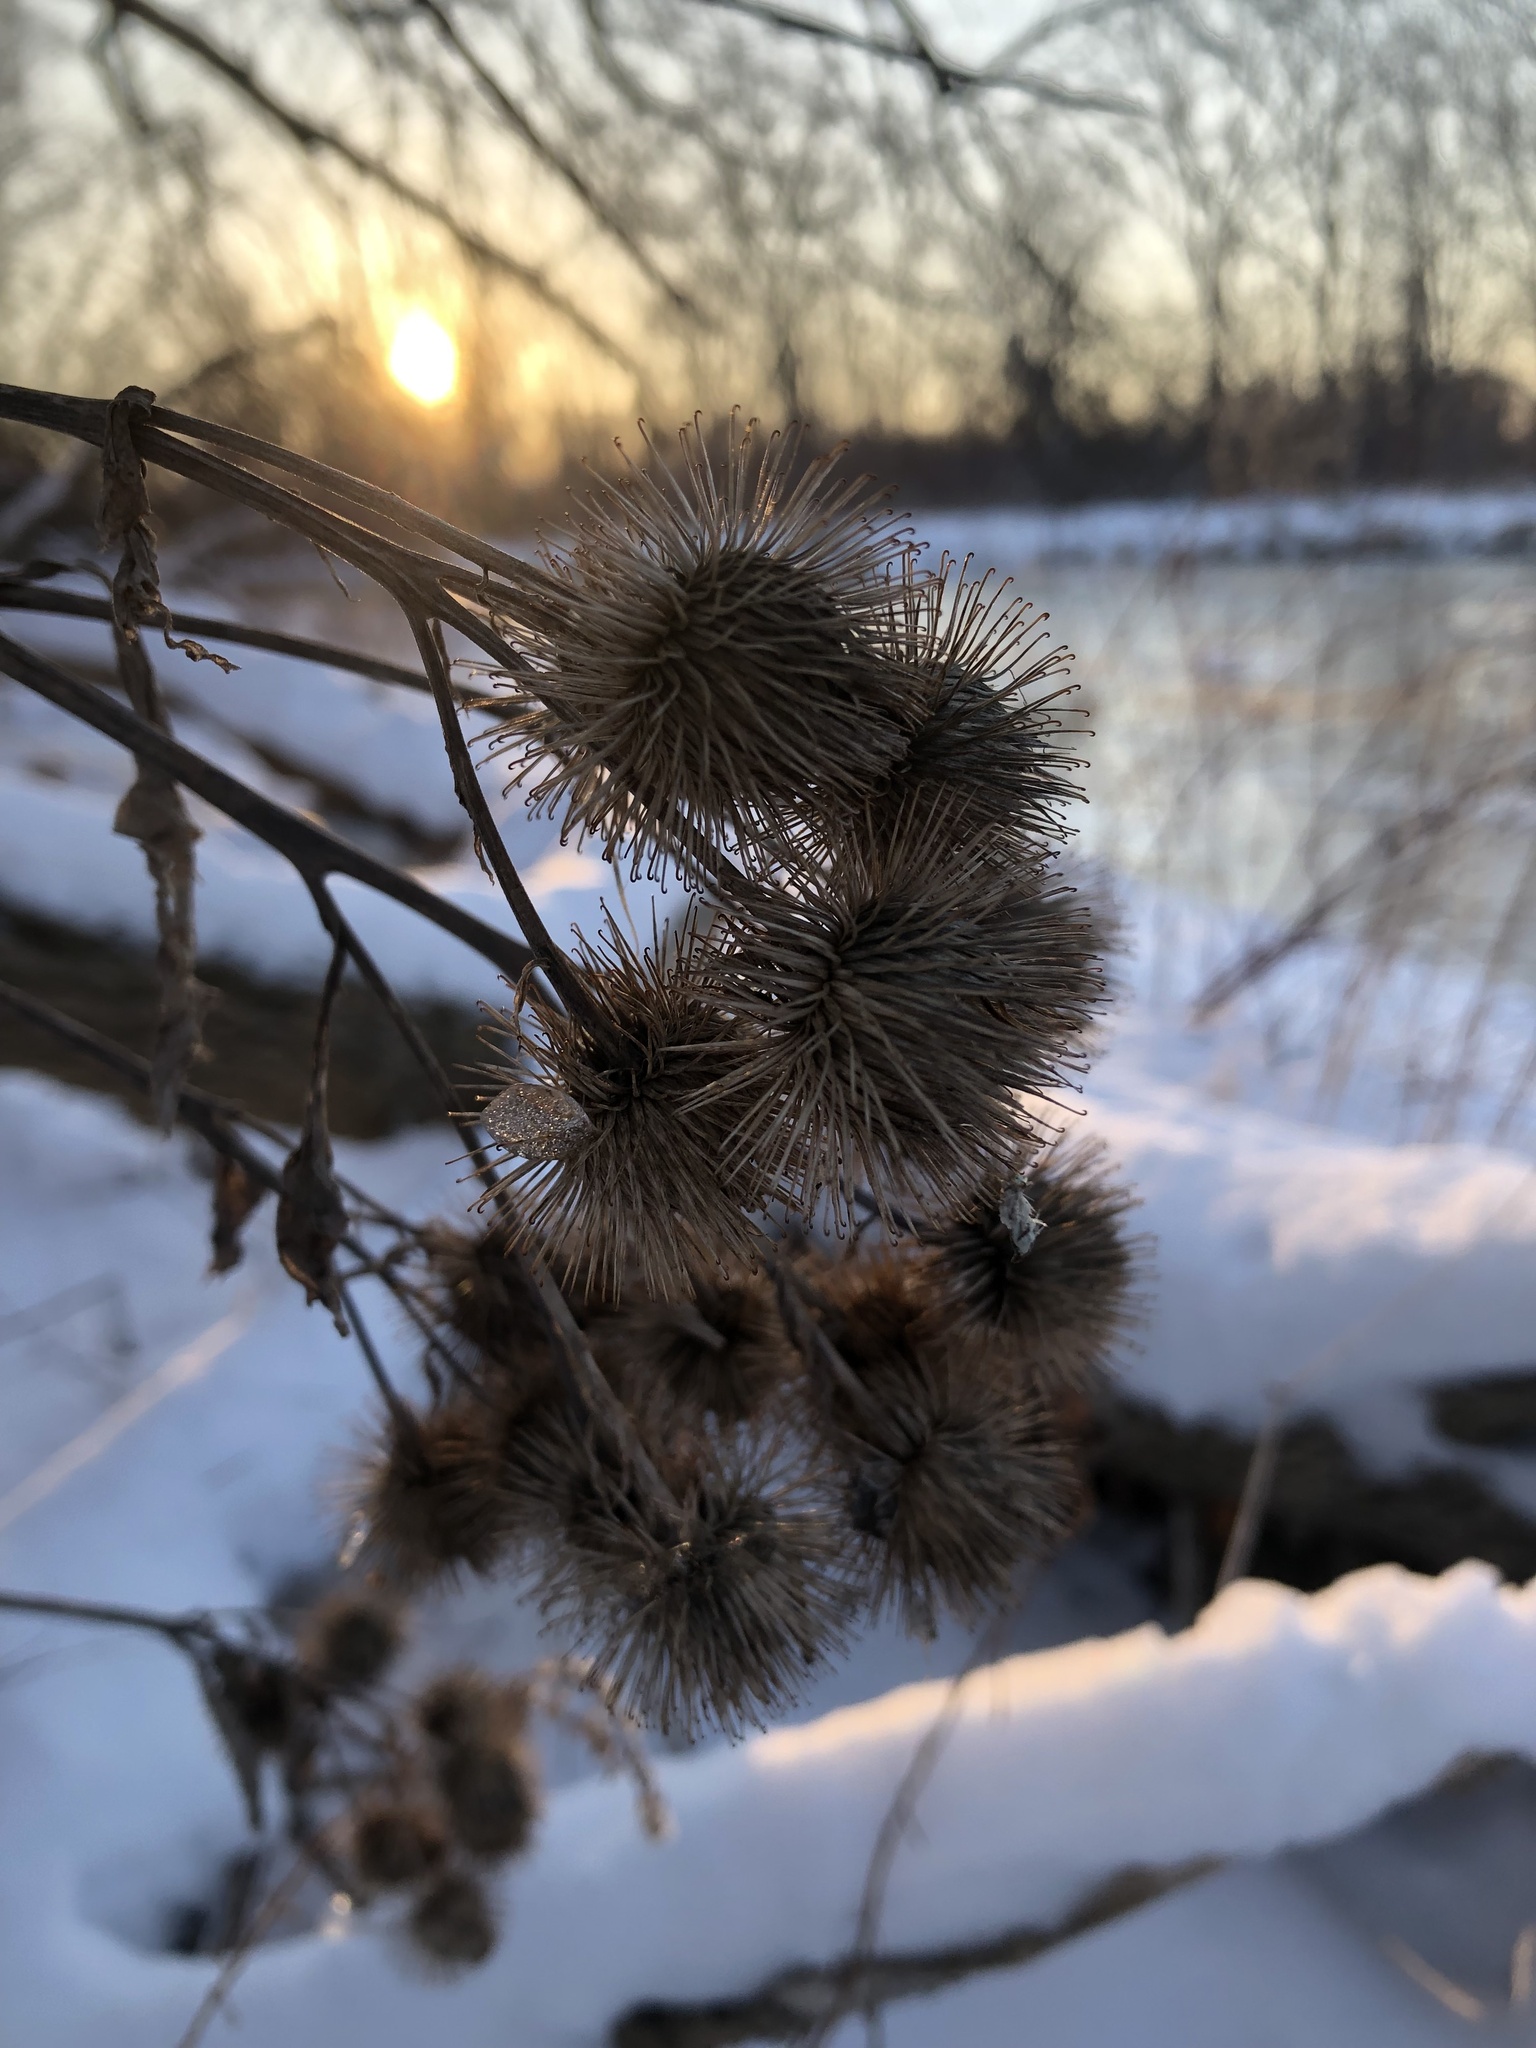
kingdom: Plantae
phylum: Tracheophyta
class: Magnoliopsida
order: Asterales
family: Asteraceae
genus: Arctium
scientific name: Arctium lappa
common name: Greater burdock
